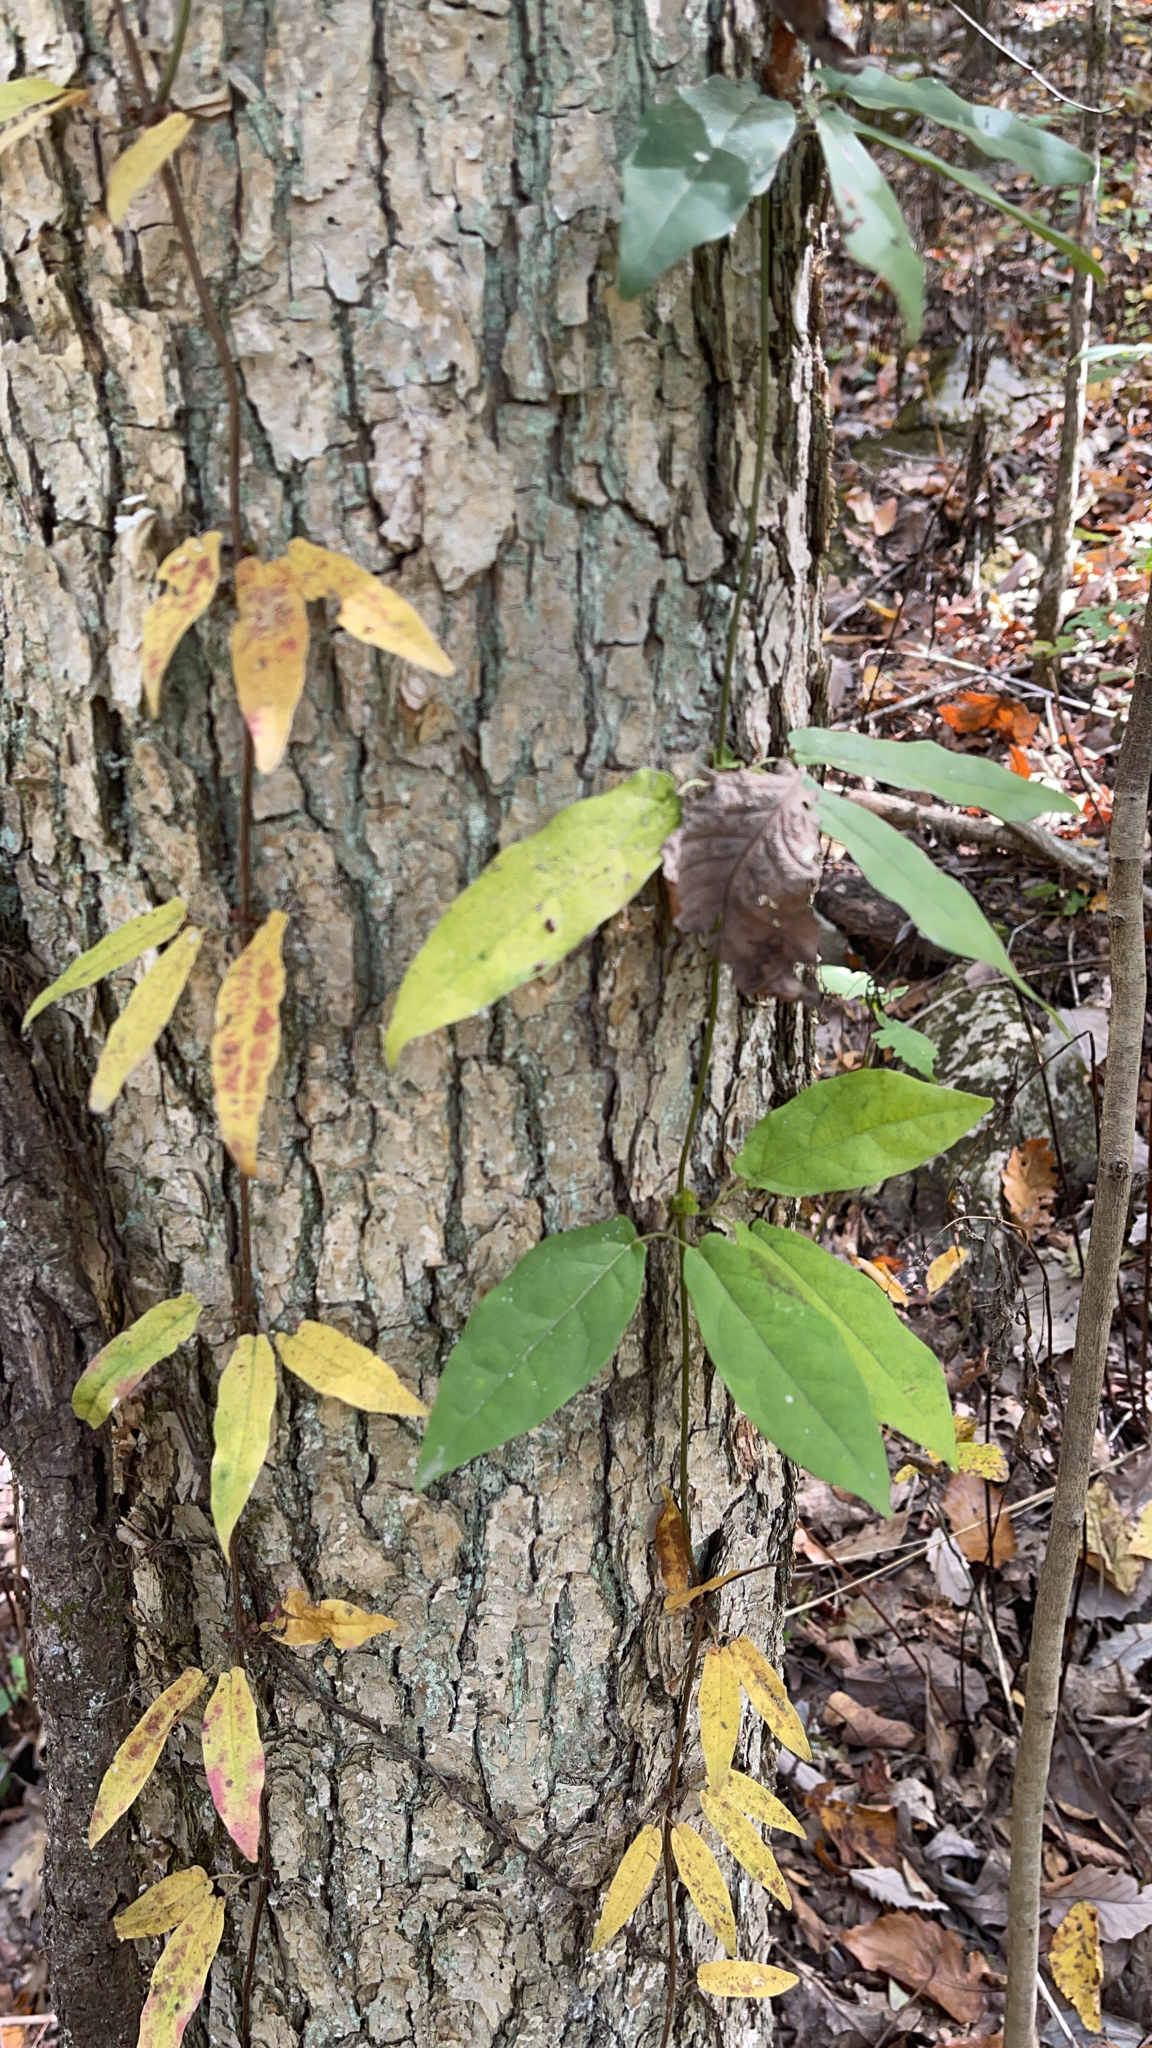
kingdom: Plantae
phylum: Tracheophyta
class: Magnoliopsida
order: Lamiales
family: Bignoniaceae
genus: Bignonia
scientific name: Bignonia capreolata
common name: Crossvine
